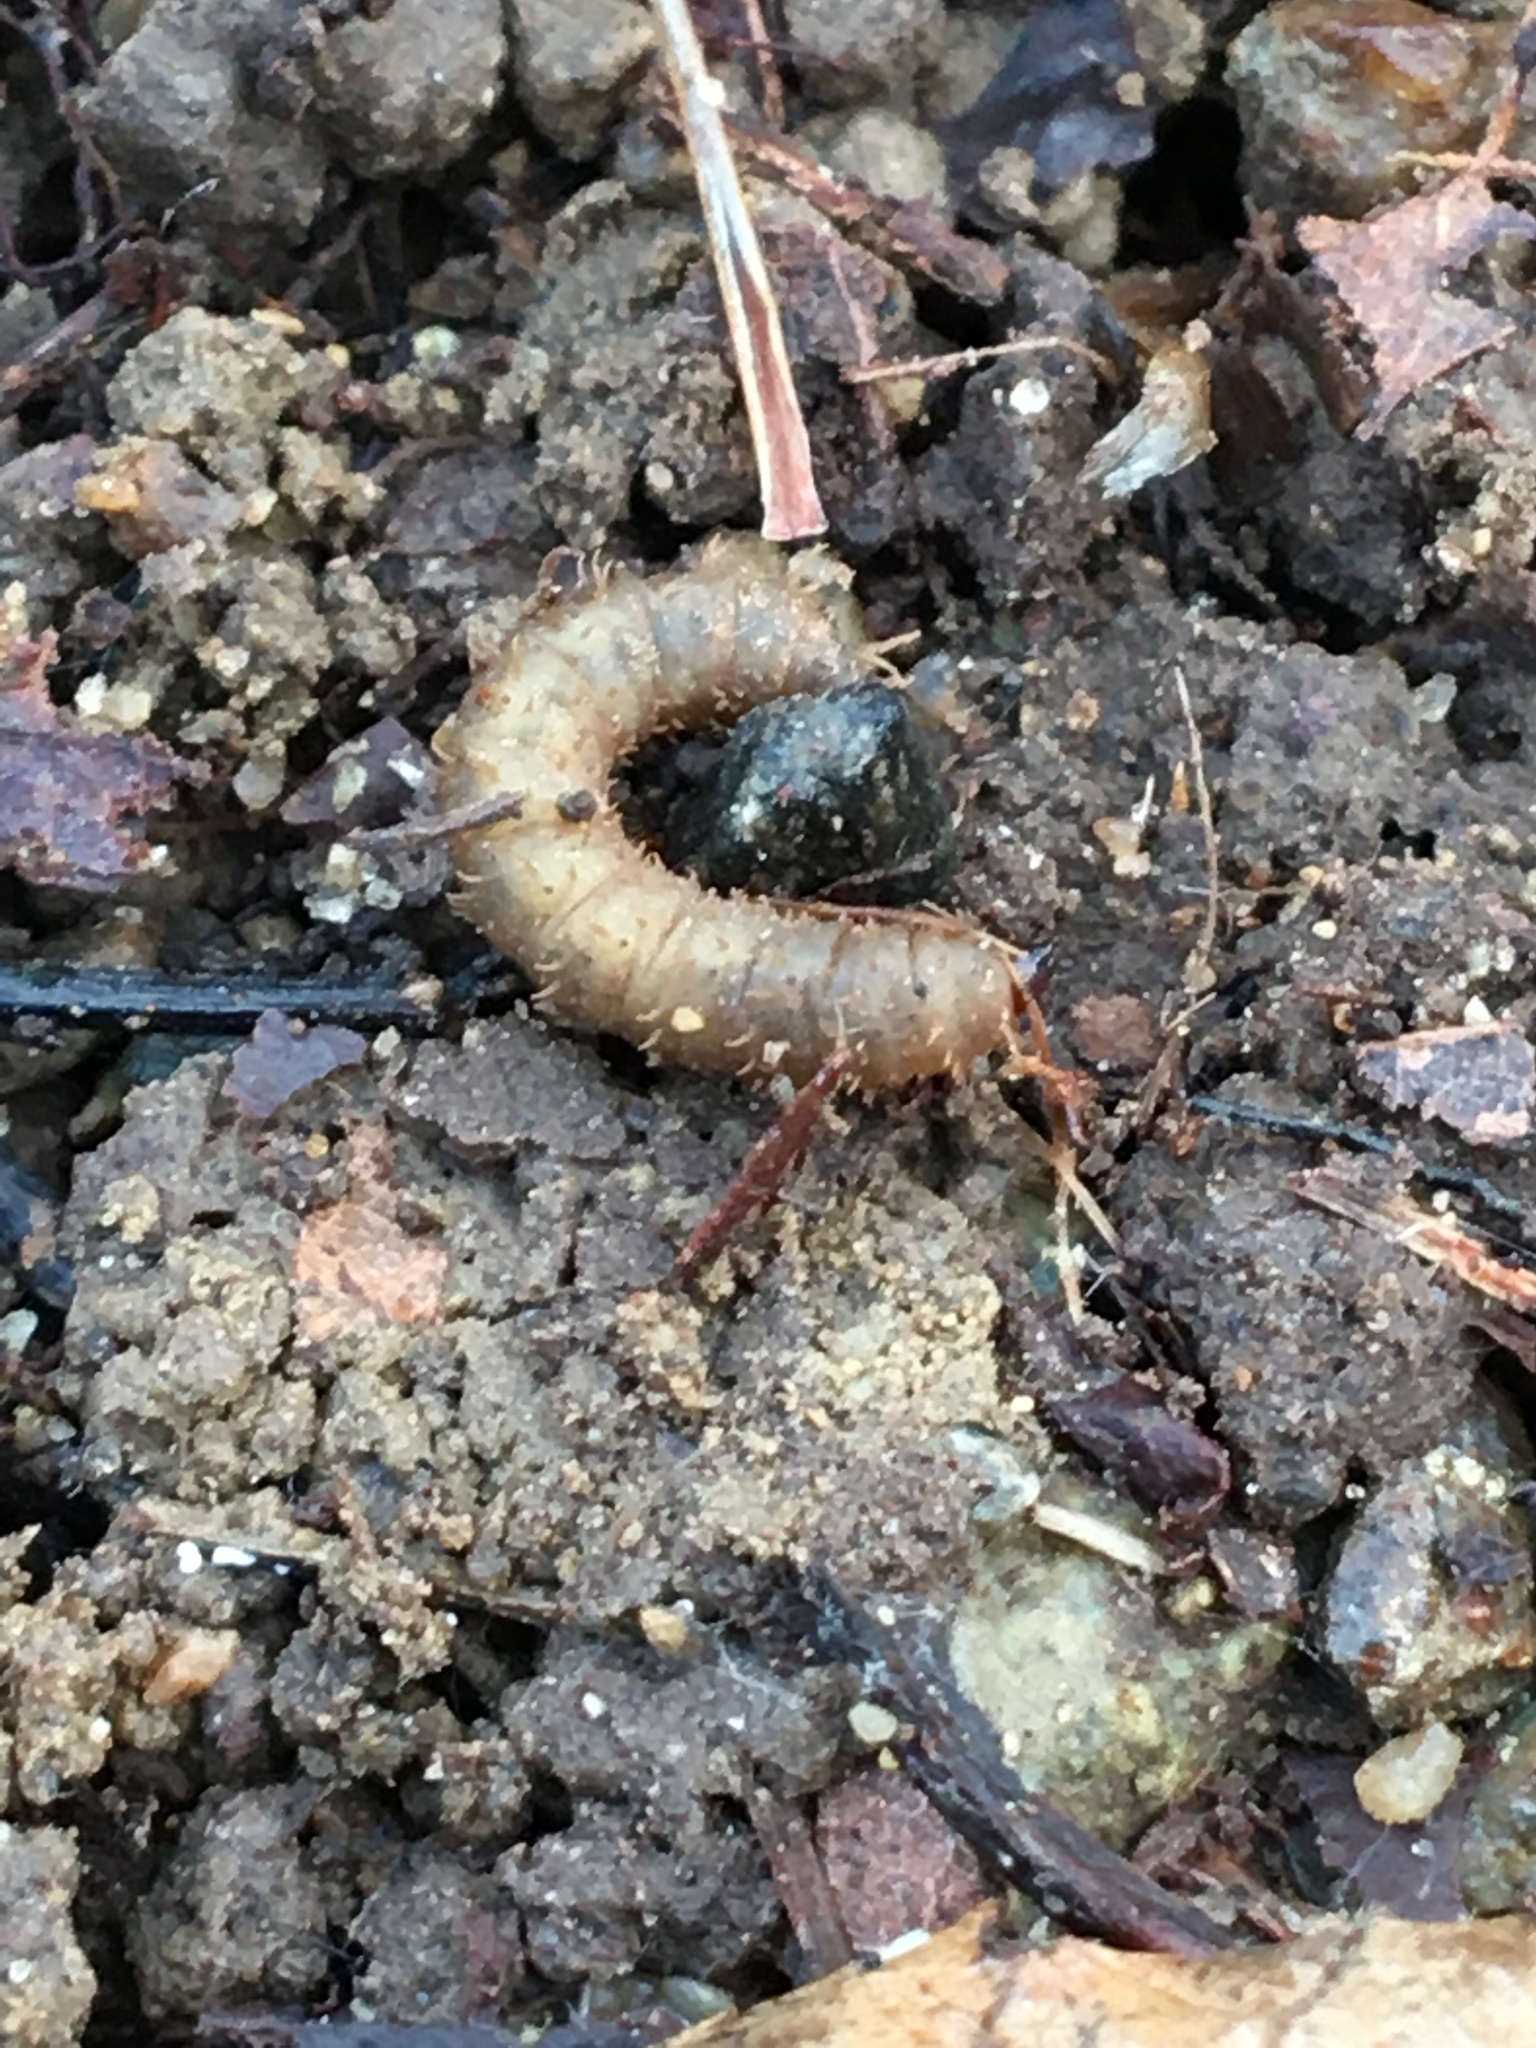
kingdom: Animalia
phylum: Arthropoda
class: Insecta
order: Diptera
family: Bibionidae
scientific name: Bibionidae
